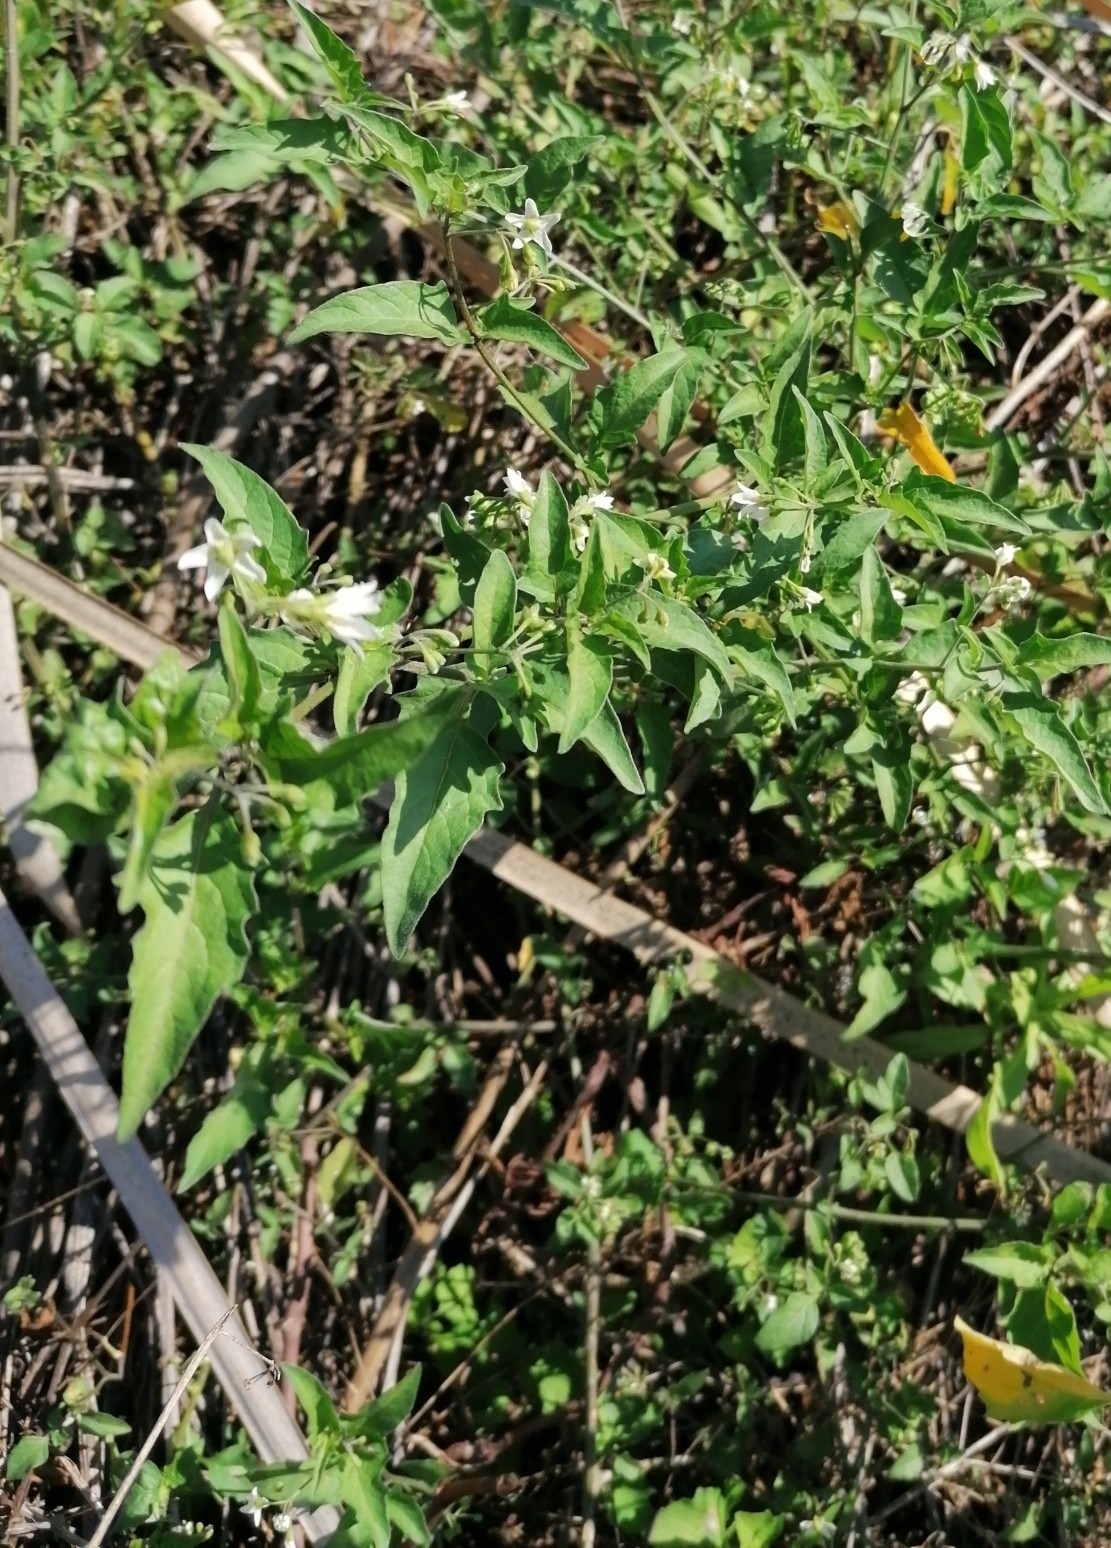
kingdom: Plantae
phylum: Tracheophyta
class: Magnoliopsida
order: Solanales
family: Solanaceae
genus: Solanum
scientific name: Solanum retroflexum
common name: Wonderberry
